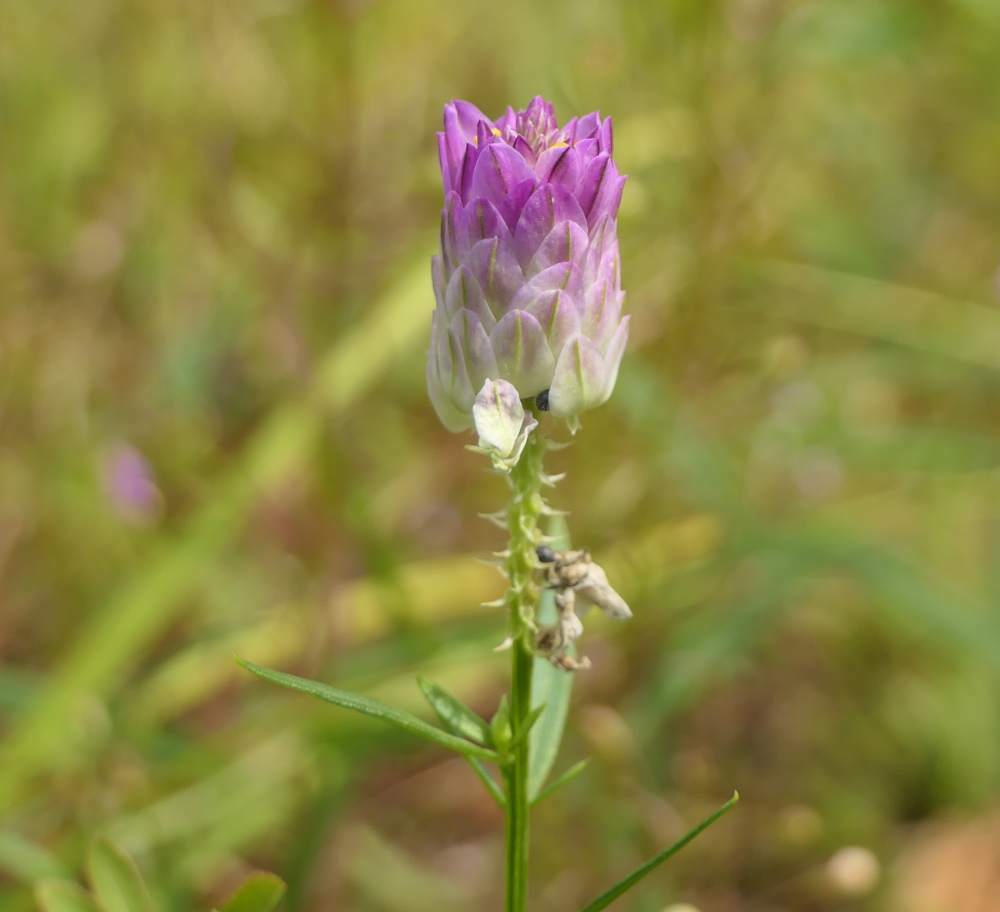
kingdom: Plantae
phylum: Tracheophyta
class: Magnoliopsida
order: Fabales
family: Polygalaceae
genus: Polygala
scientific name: Polygala sanguinea
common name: Blood milkwort
